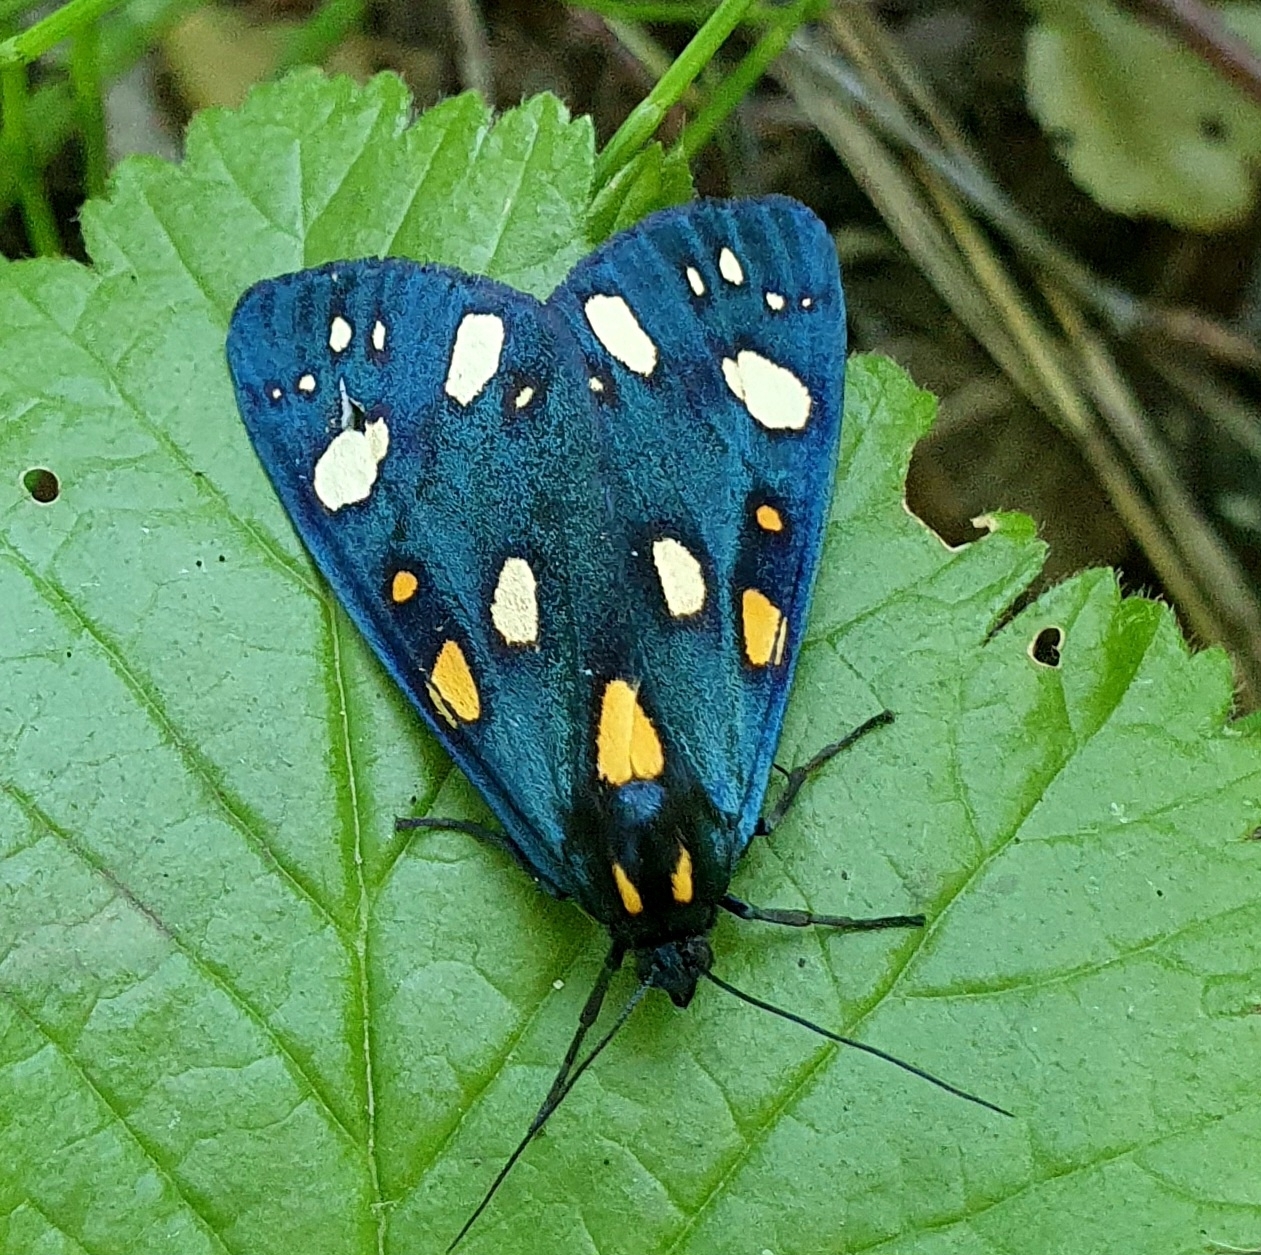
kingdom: Animalia
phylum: Arthropoda
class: Insecta
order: Lepidoptera
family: Erebidae
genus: Callimorpha
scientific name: Callimorpha dominula
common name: Scarlet tiger
